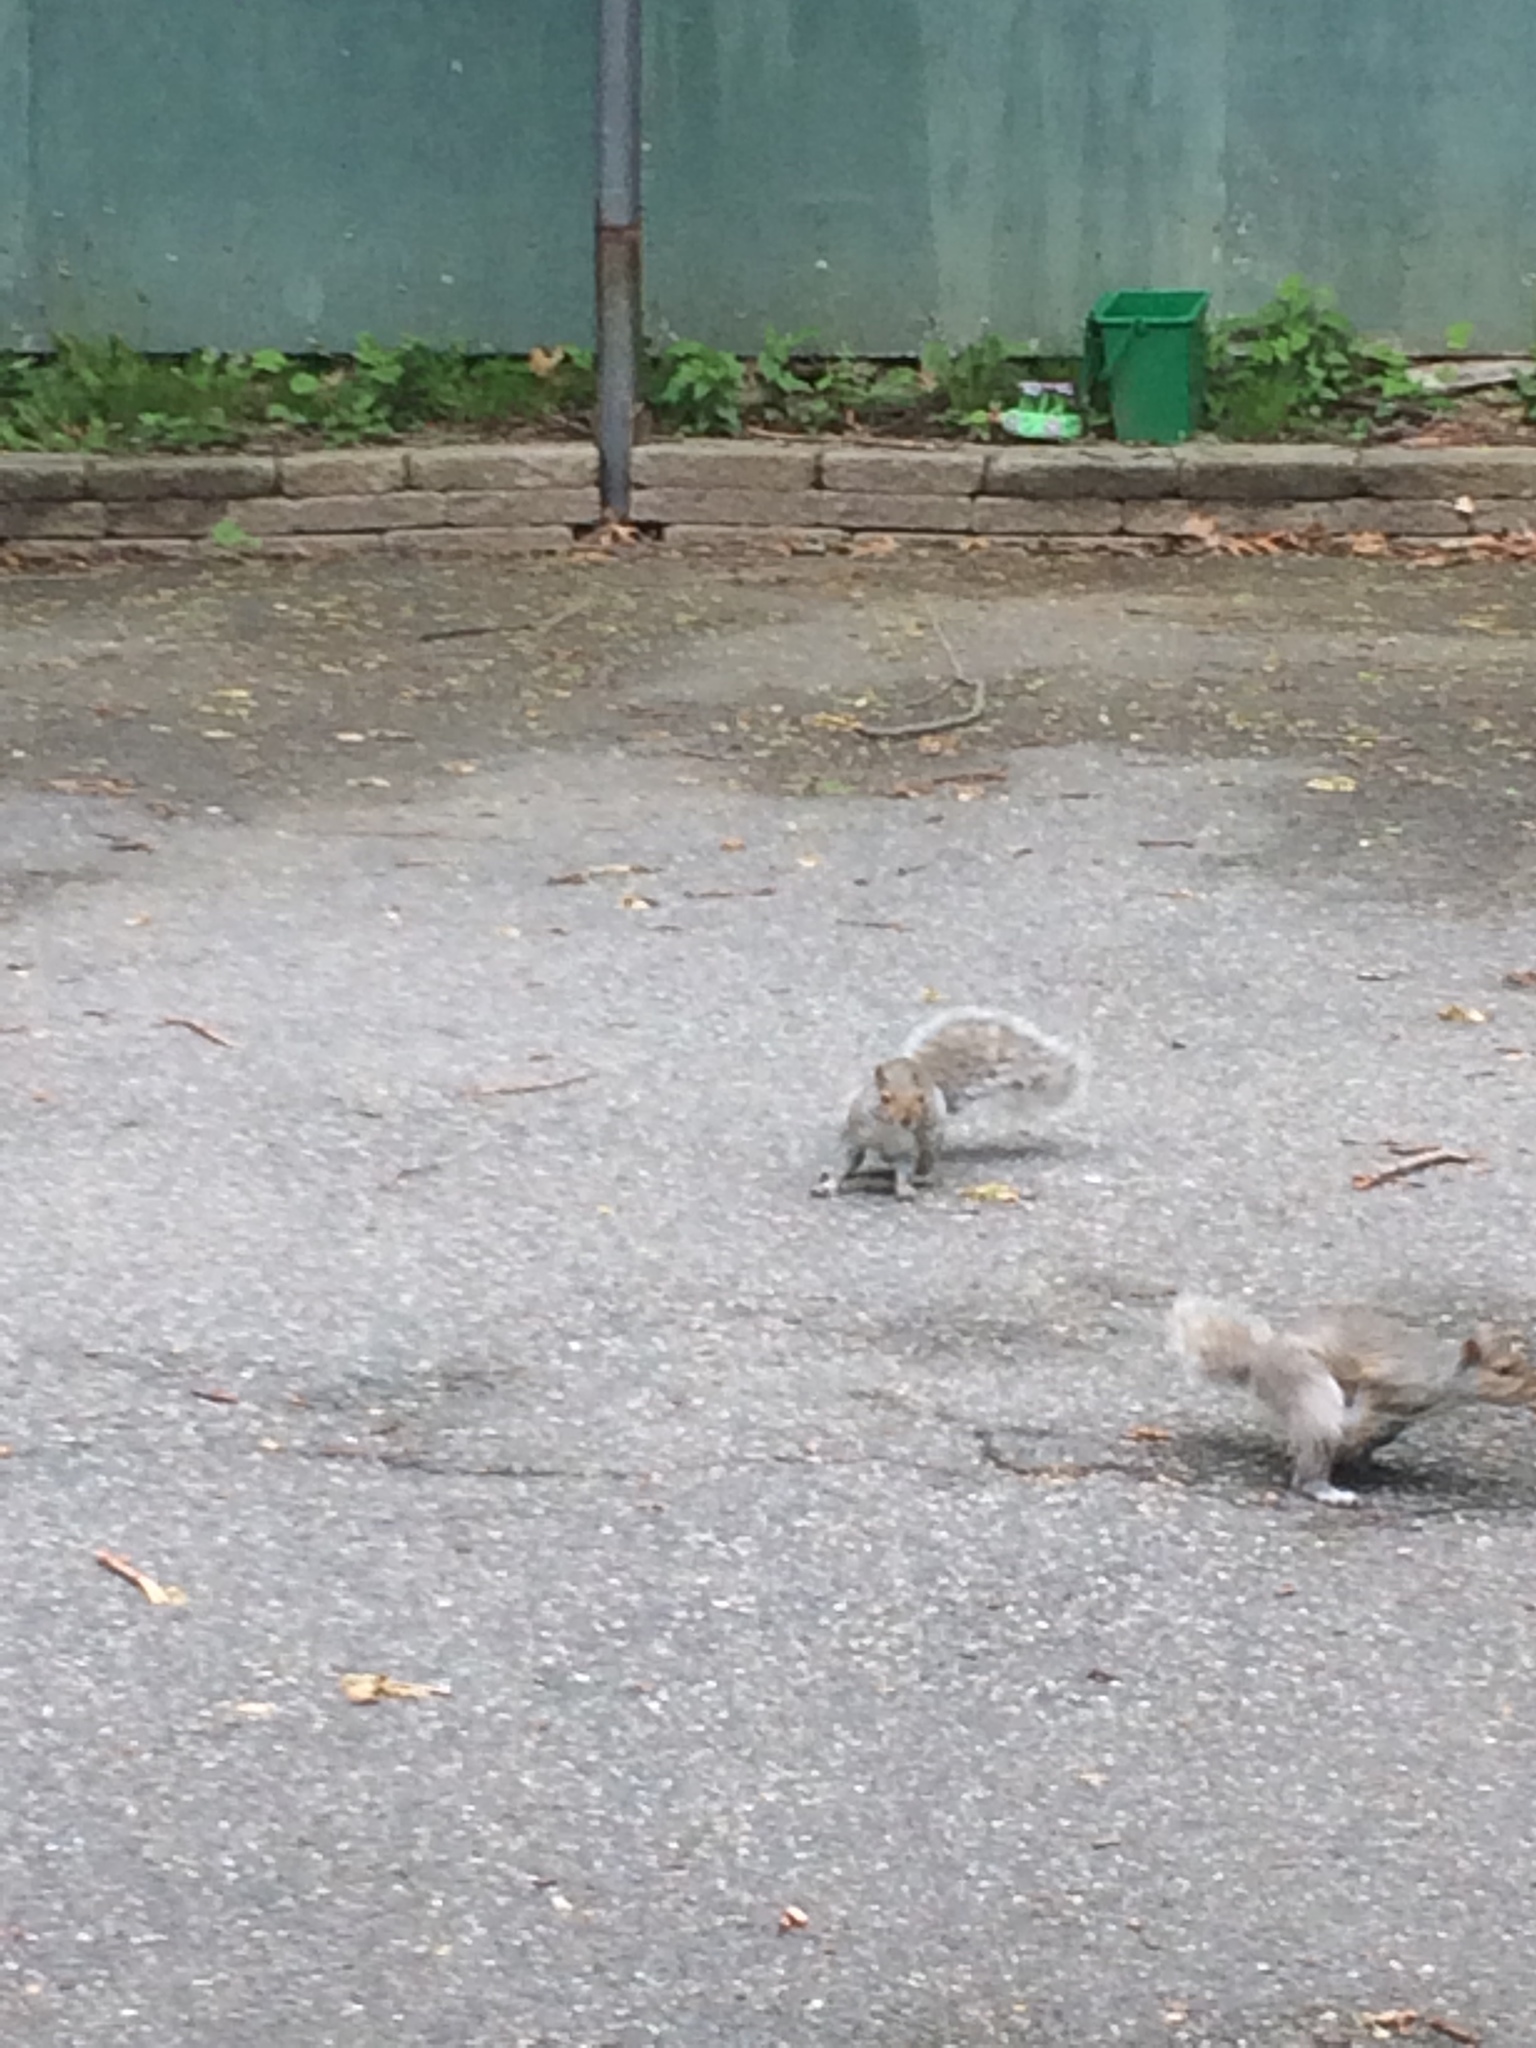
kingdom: Animalia
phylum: Chordata
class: Mammalia
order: Rodentia
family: Sciuridae
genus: Sciurus
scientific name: Sciurus carolinensis
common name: Eastern gray squirrel
